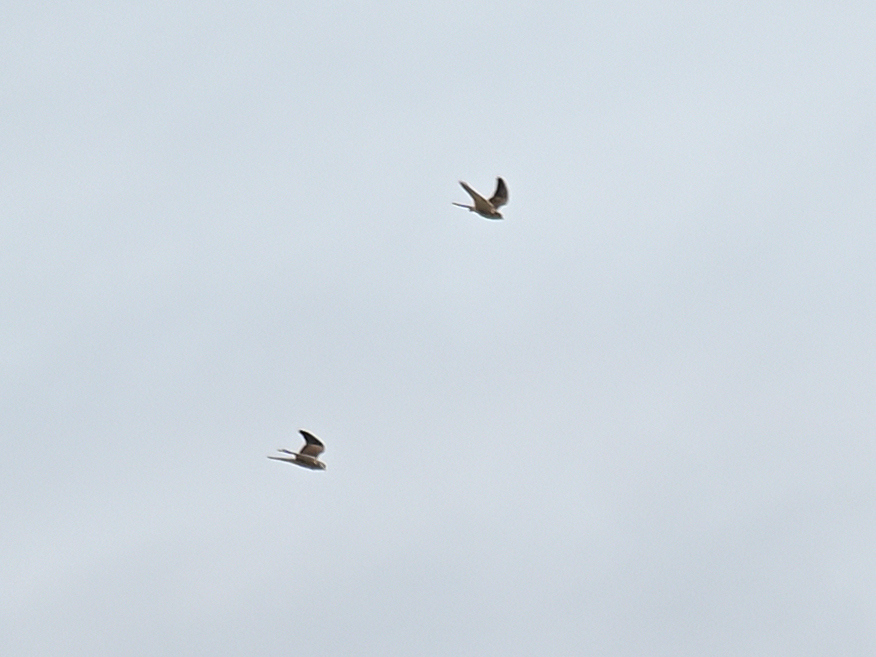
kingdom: Animalia
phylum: Chordata
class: Aves
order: Falconiformes
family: Falconidae
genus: Falco
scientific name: Falco tinnunculus
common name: Common kestrel
